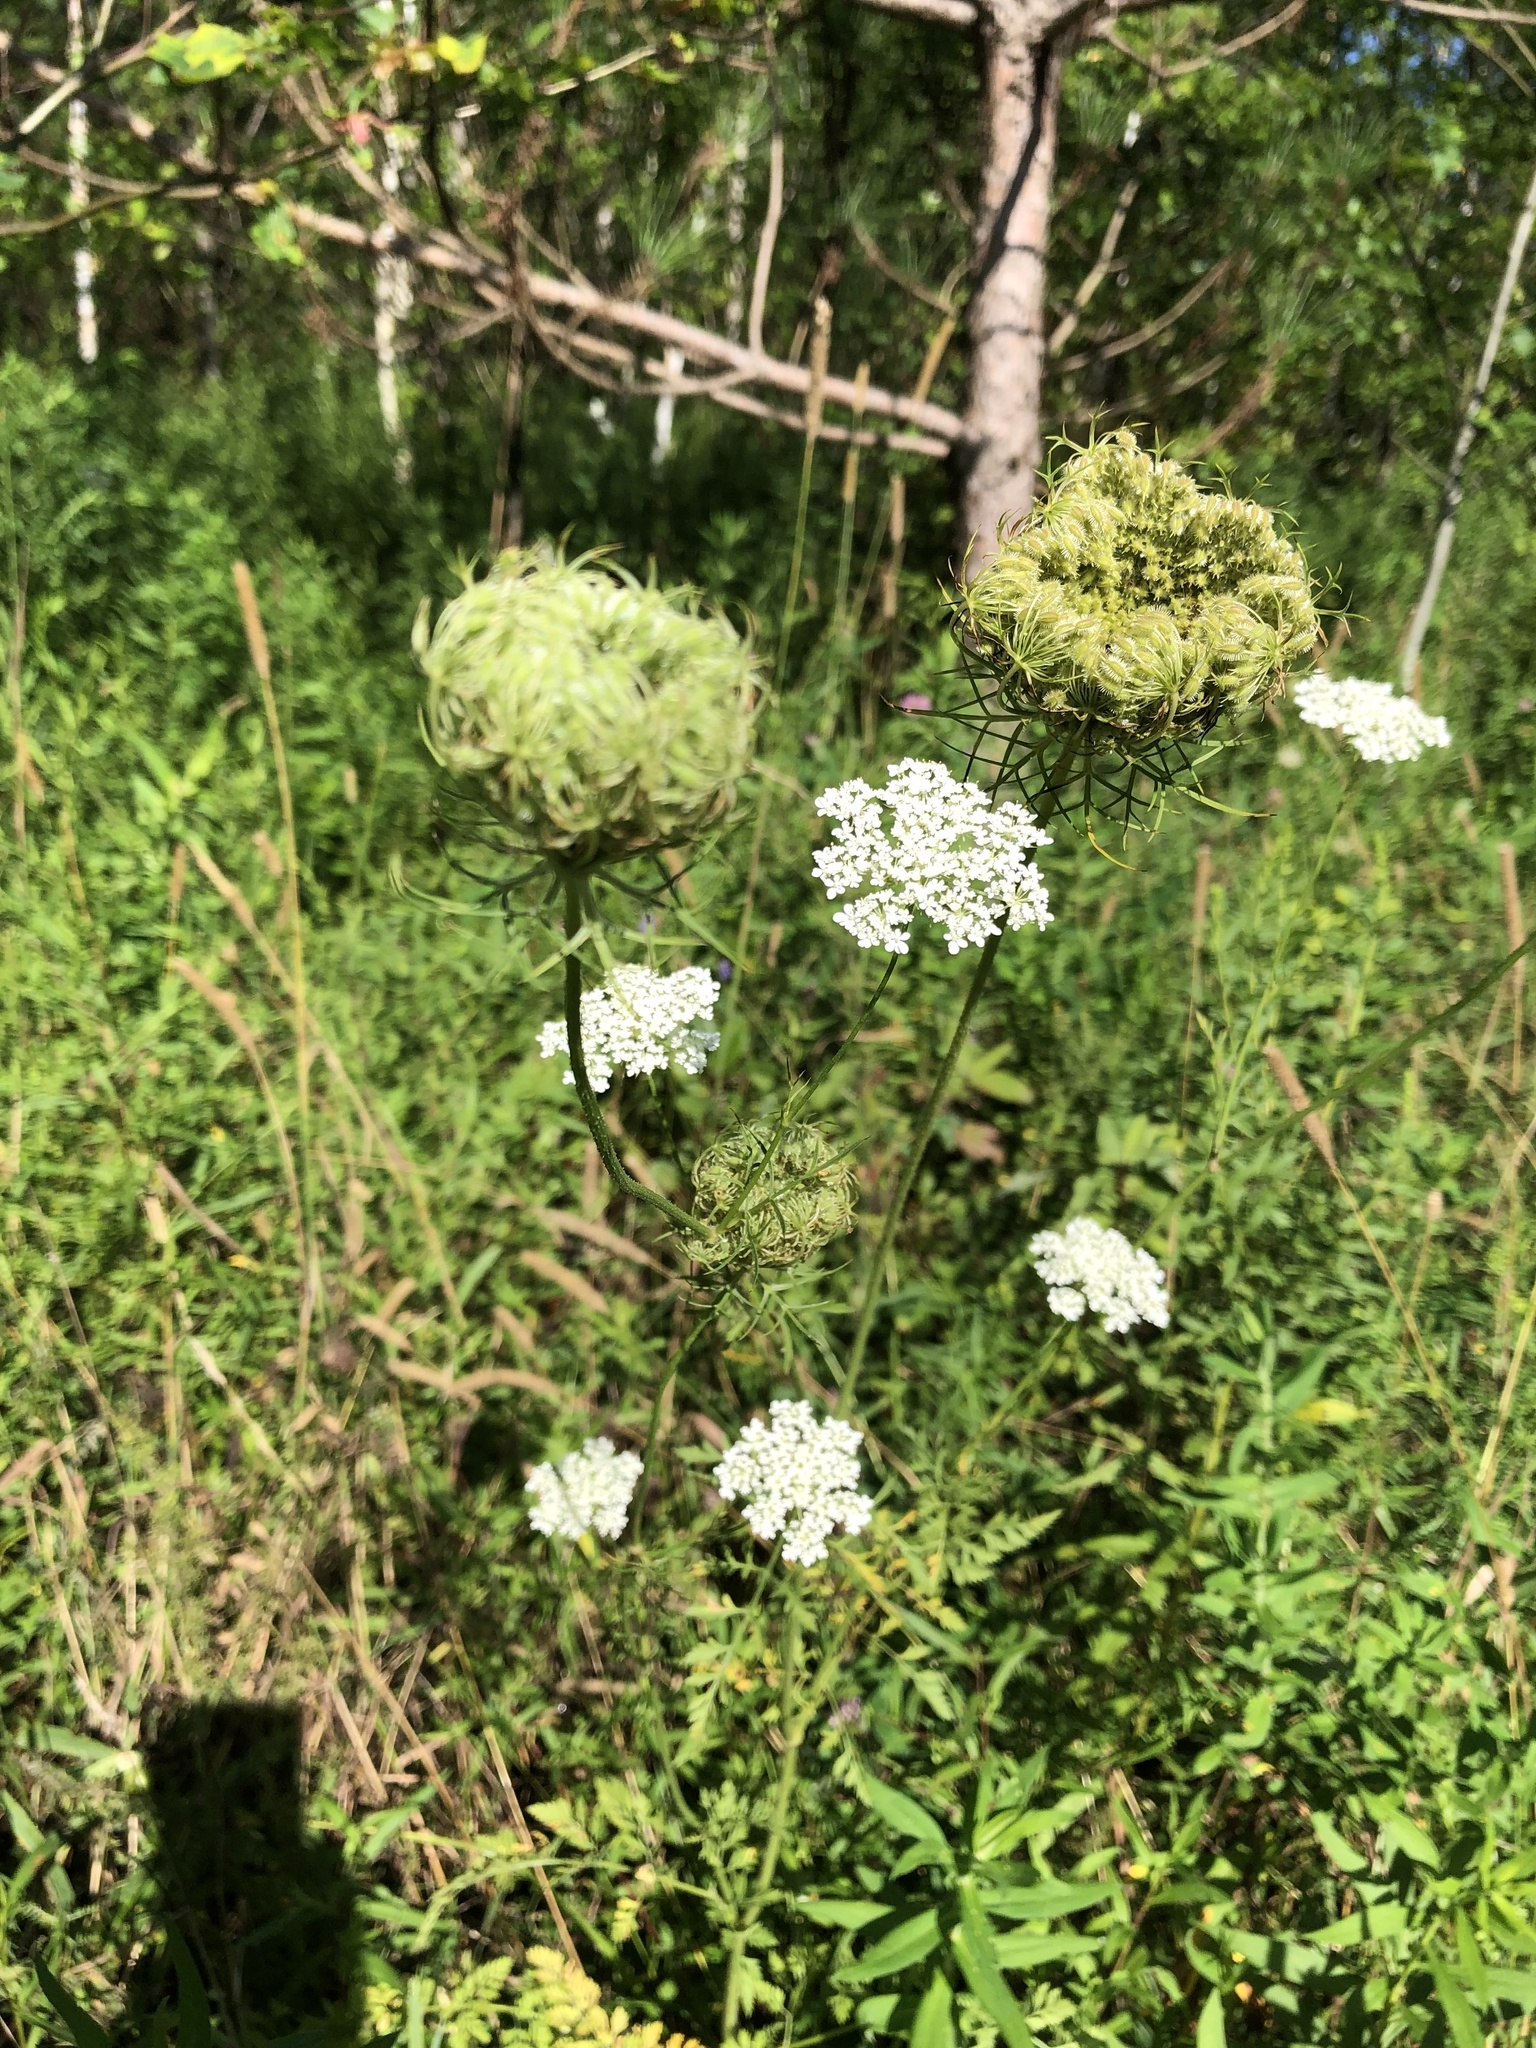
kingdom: Plantae
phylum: Tracheophyta
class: Magnoliopsida
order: Apiales
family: Apiaceae
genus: Daucus
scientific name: Daucus carota
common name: Wild carrot
